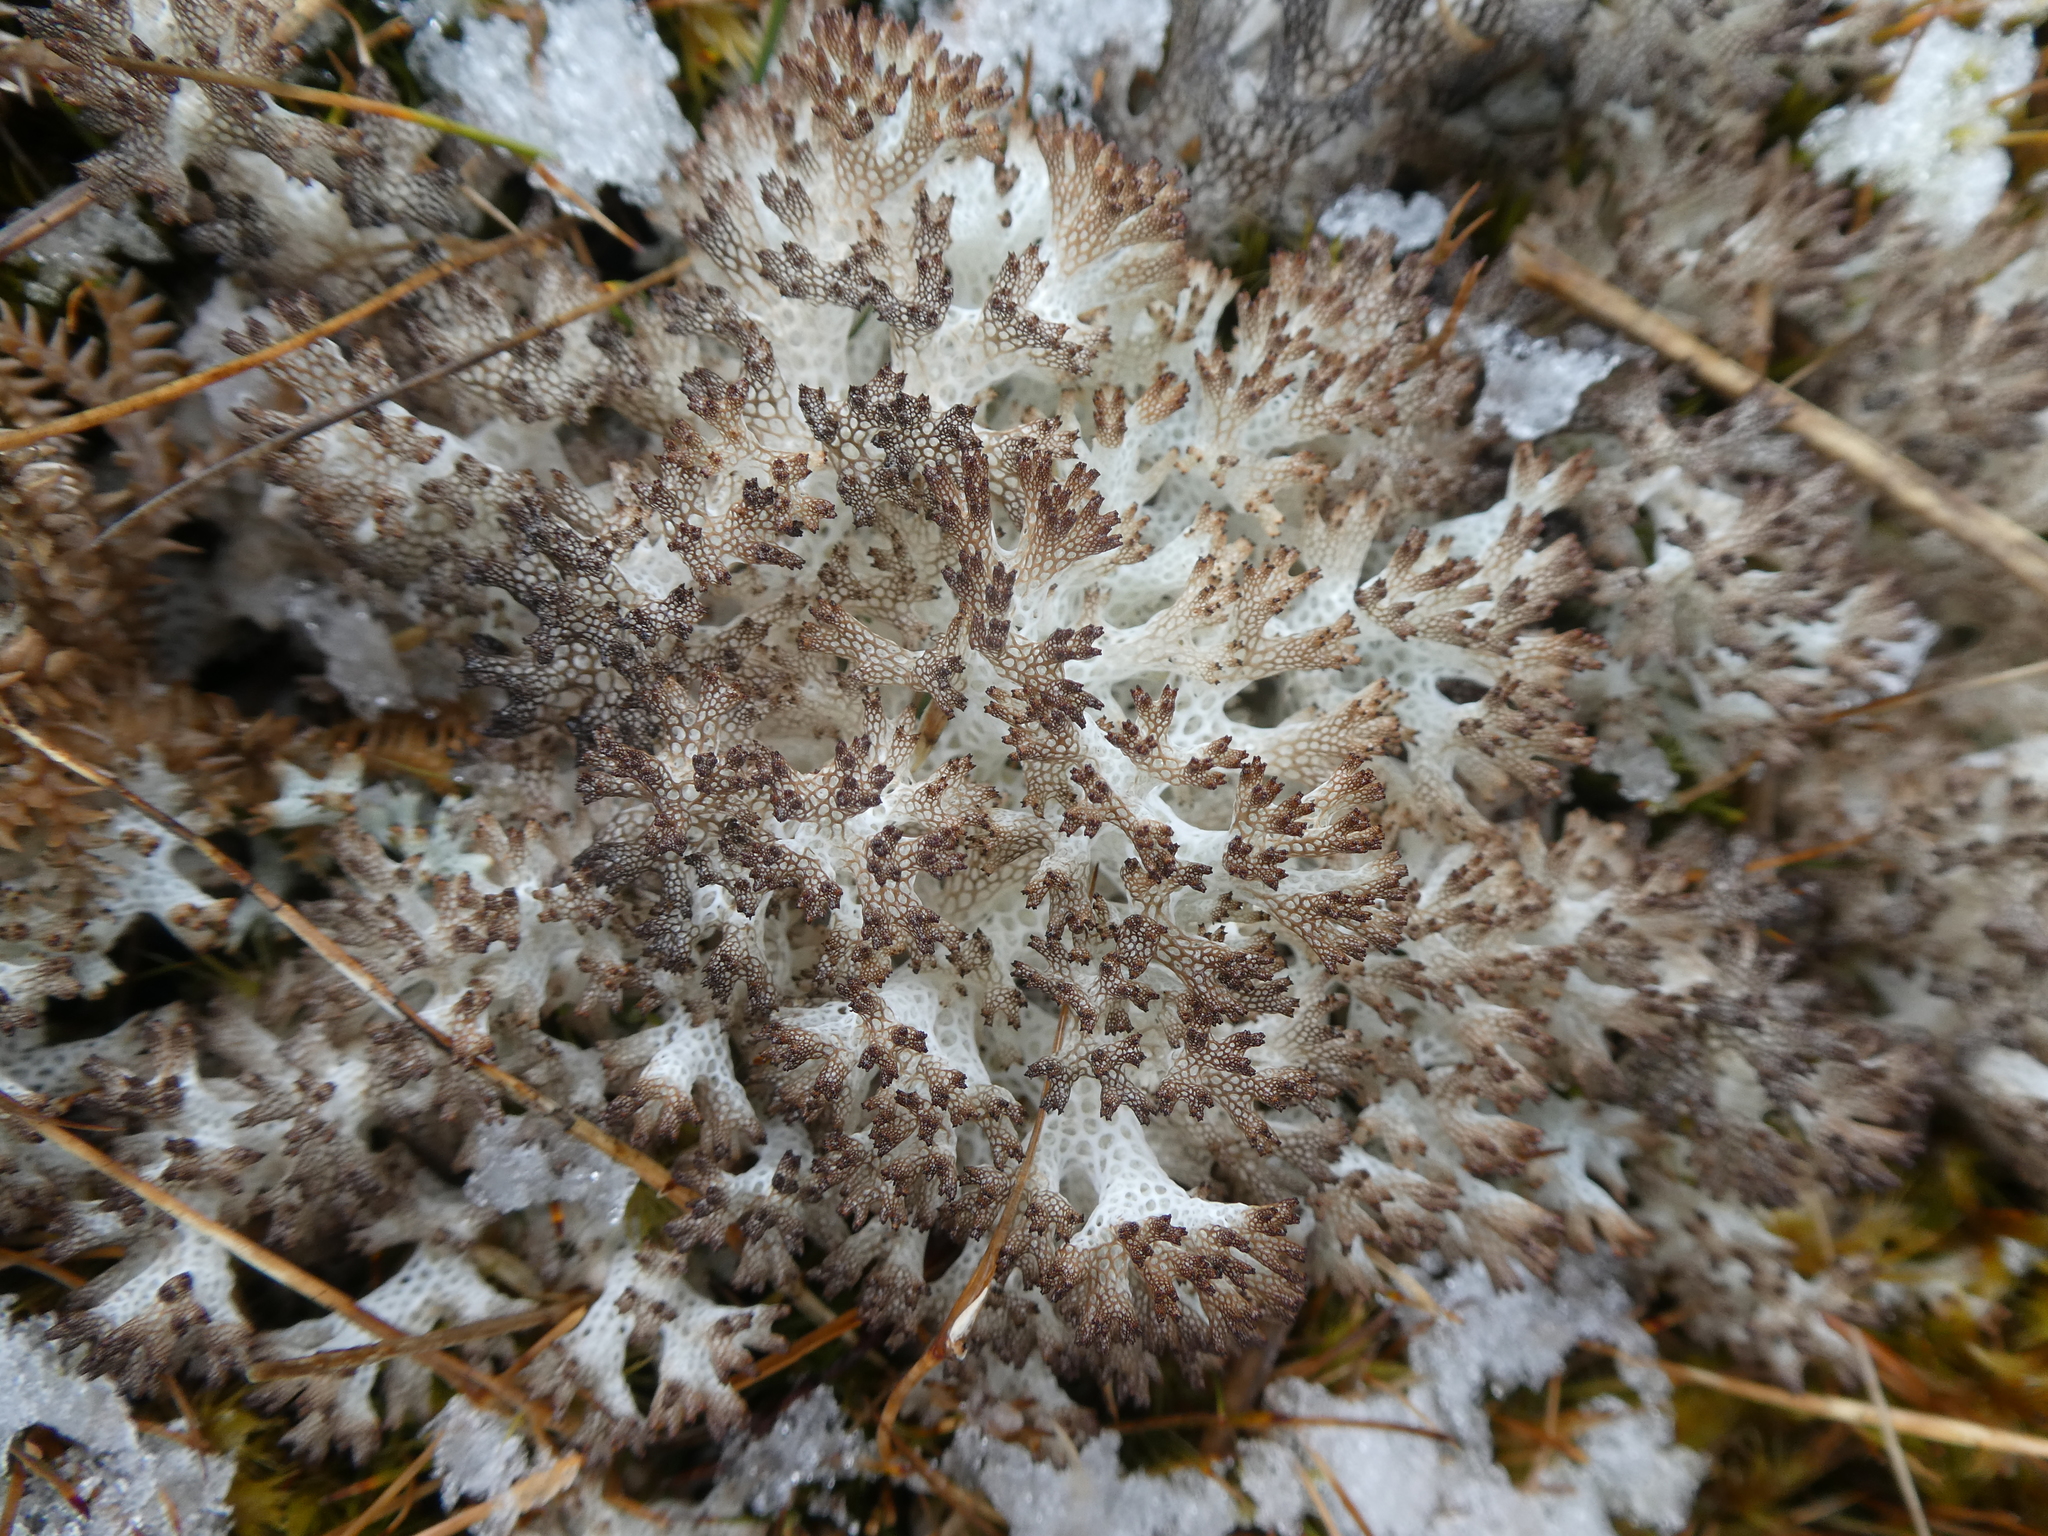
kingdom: Fungi
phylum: Ascomycota
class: Lecanoromycetes
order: Lecanorales
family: Cladoniaceae
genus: Pulchrocladia
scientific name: Pulchrocladia retipora
